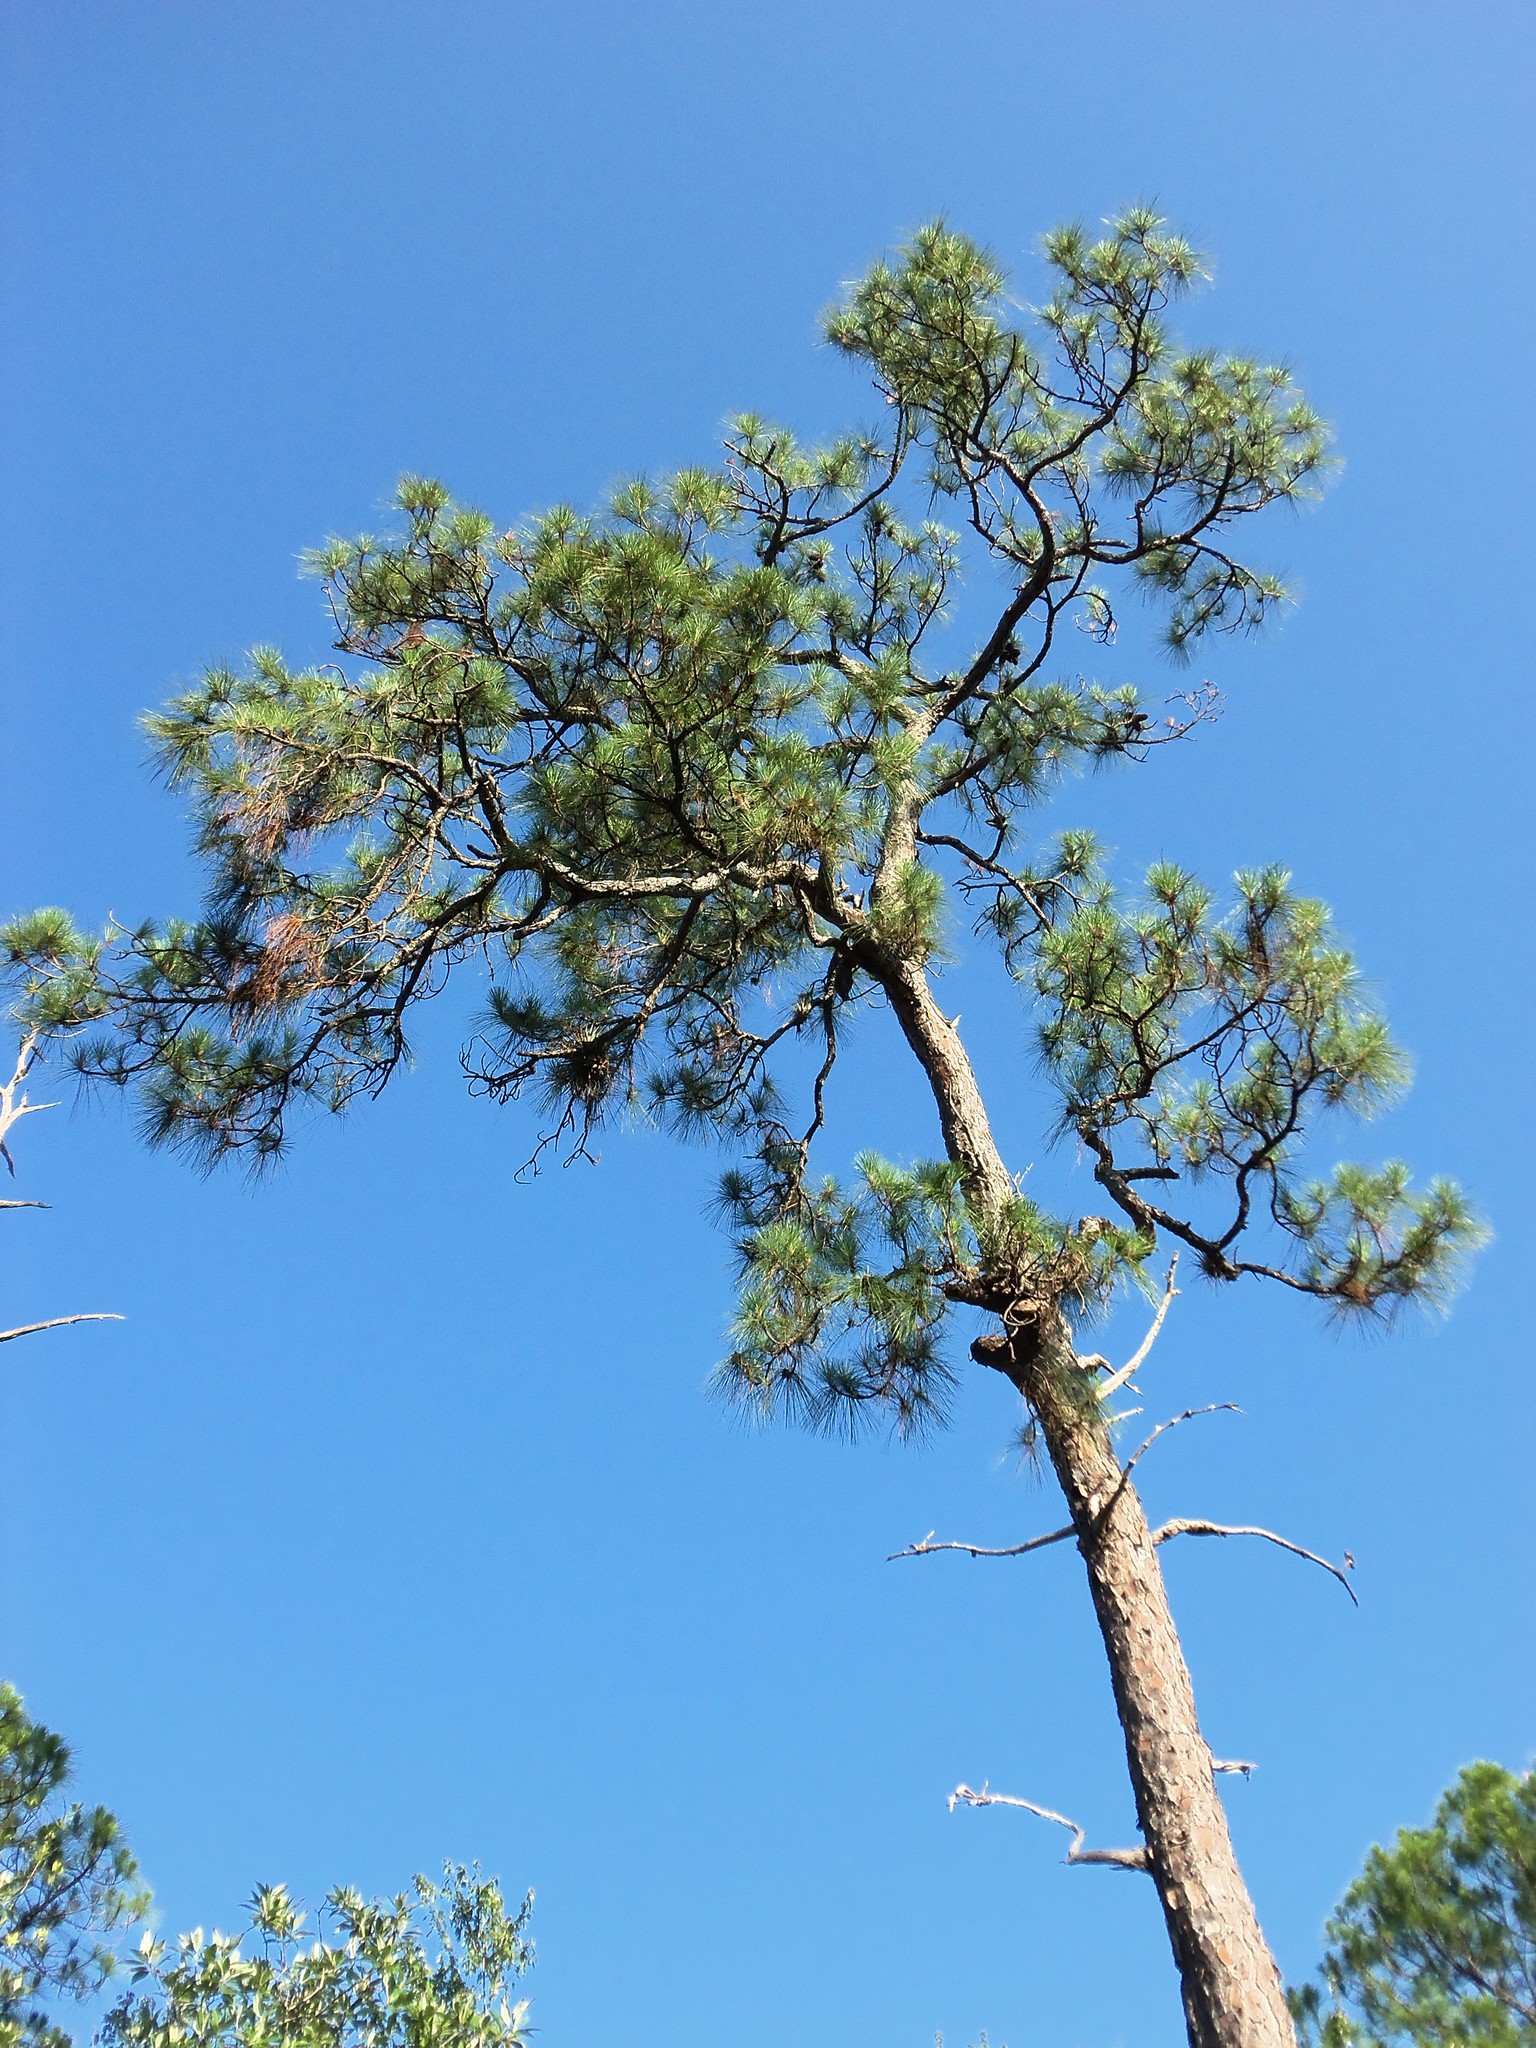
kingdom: Plantae
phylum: Tracheophyta
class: Pinopsida
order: Pinales
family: Pinaceae
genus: Pinus
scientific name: Pinus elliottii
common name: Slash pine
